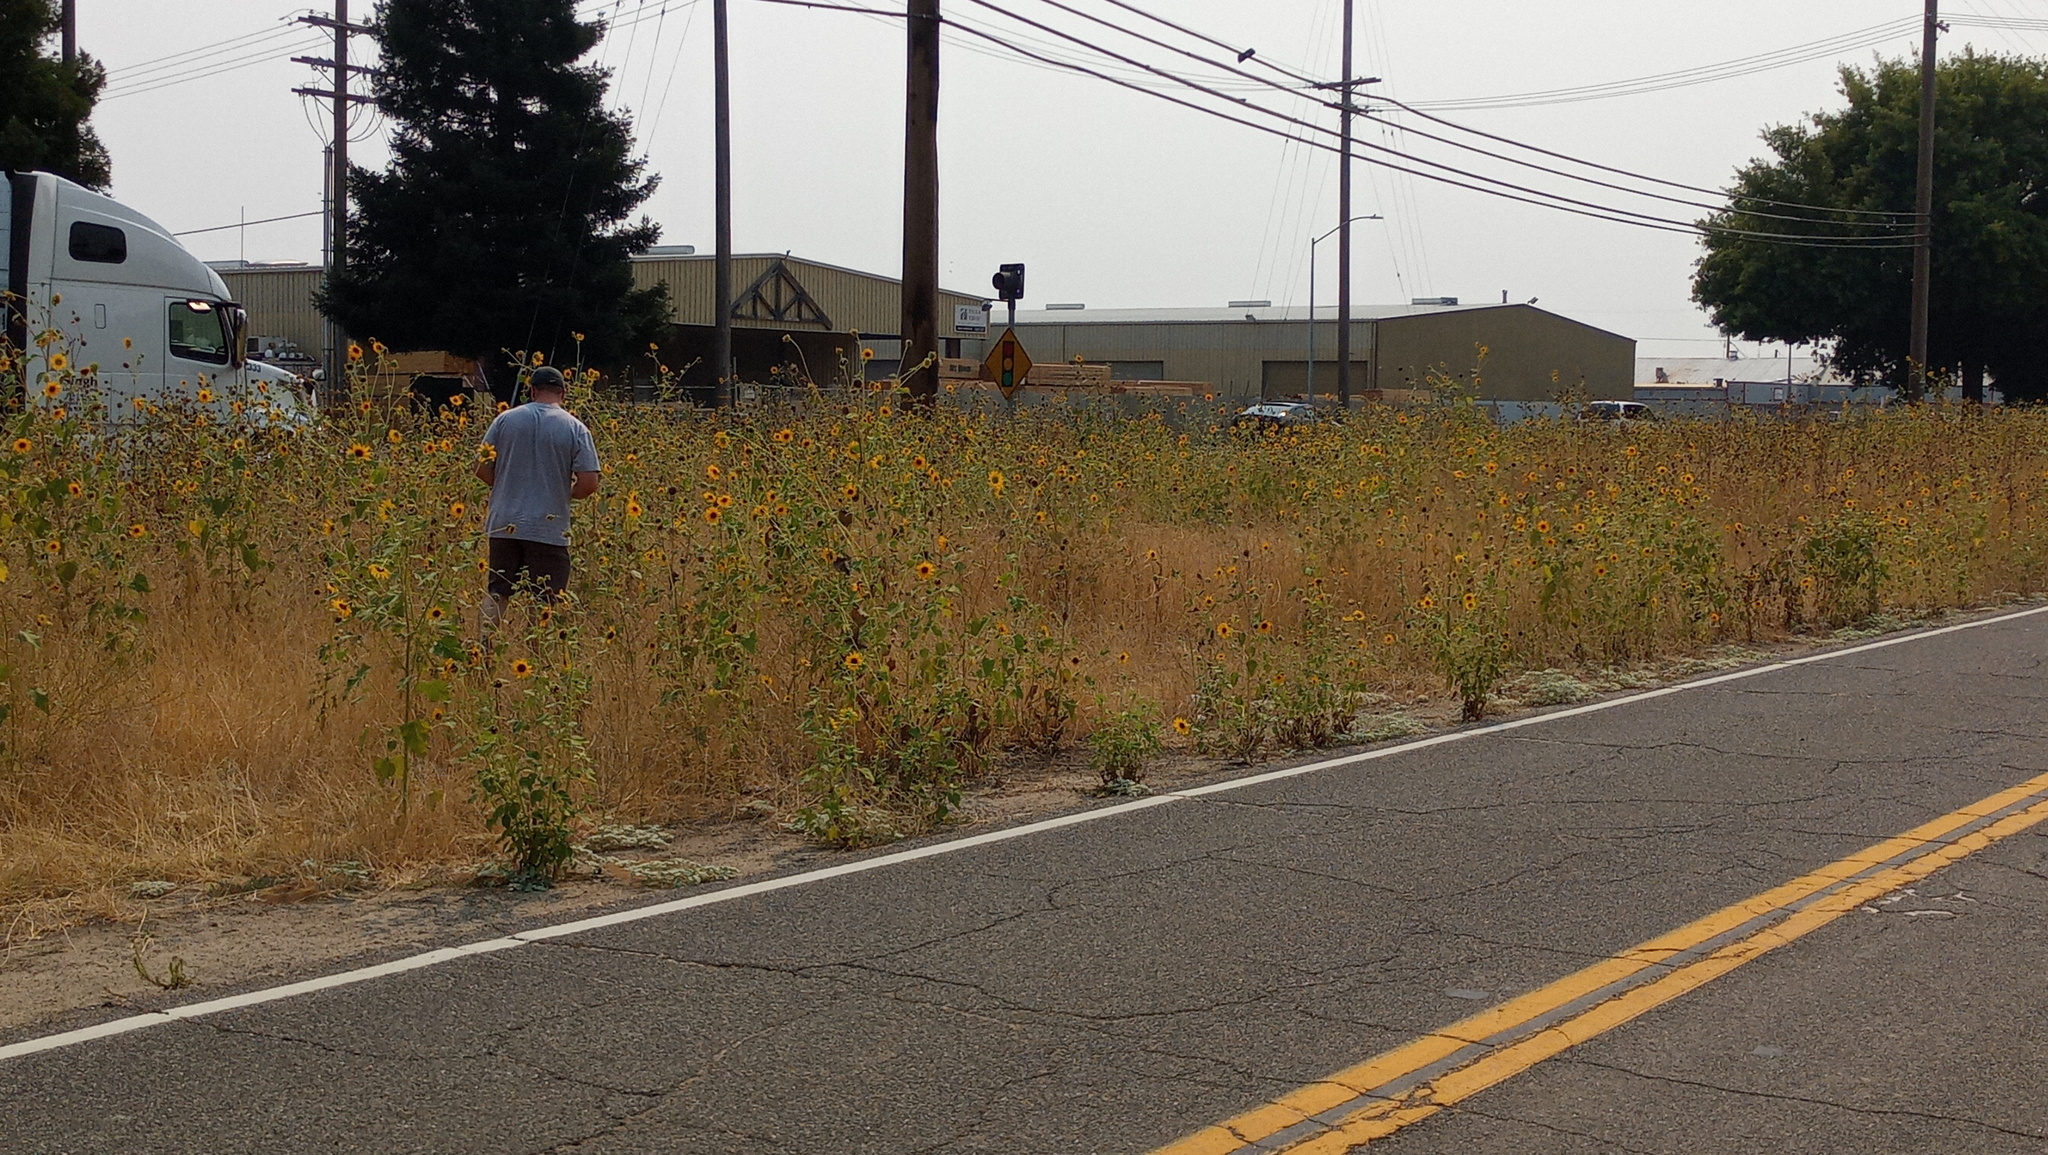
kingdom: Fungi
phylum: Basidiomycota
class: Pucciniomycetes
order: Pucciniales
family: Pucciniaceae
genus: Puccinia
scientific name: Puccinia helianthi-mollis
